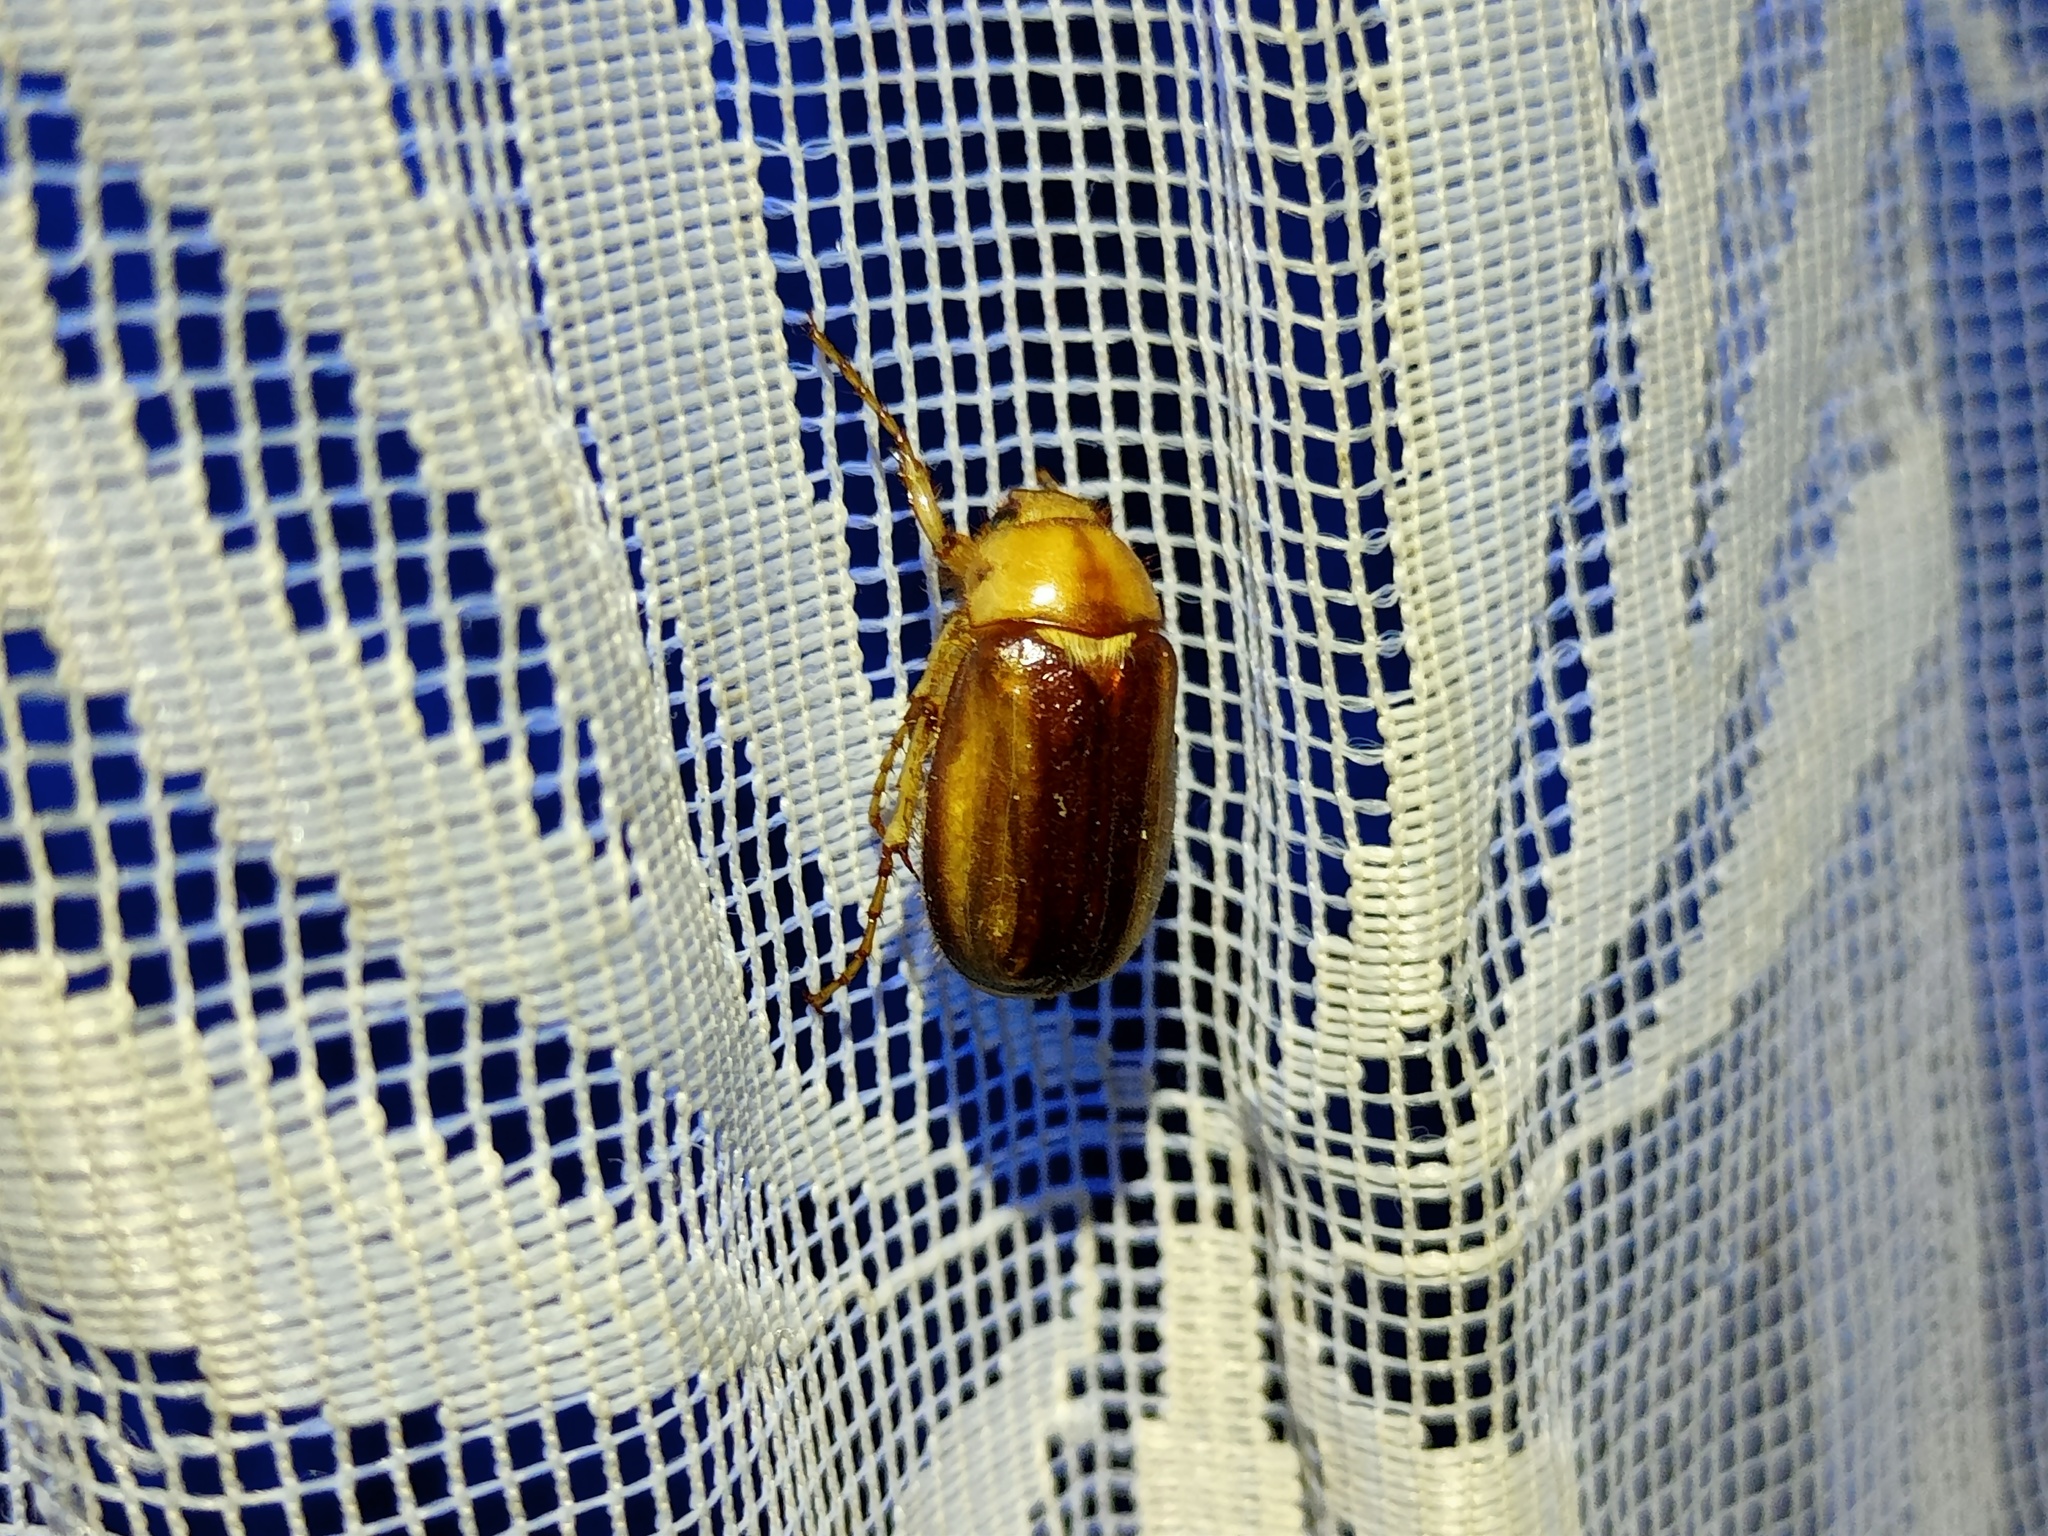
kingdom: Animalia
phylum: Arthropoda
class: Insecta
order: Coleoptera
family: Scarabaeidae
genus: Rhizotrogus
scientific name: Rhizotrogus aestivus
